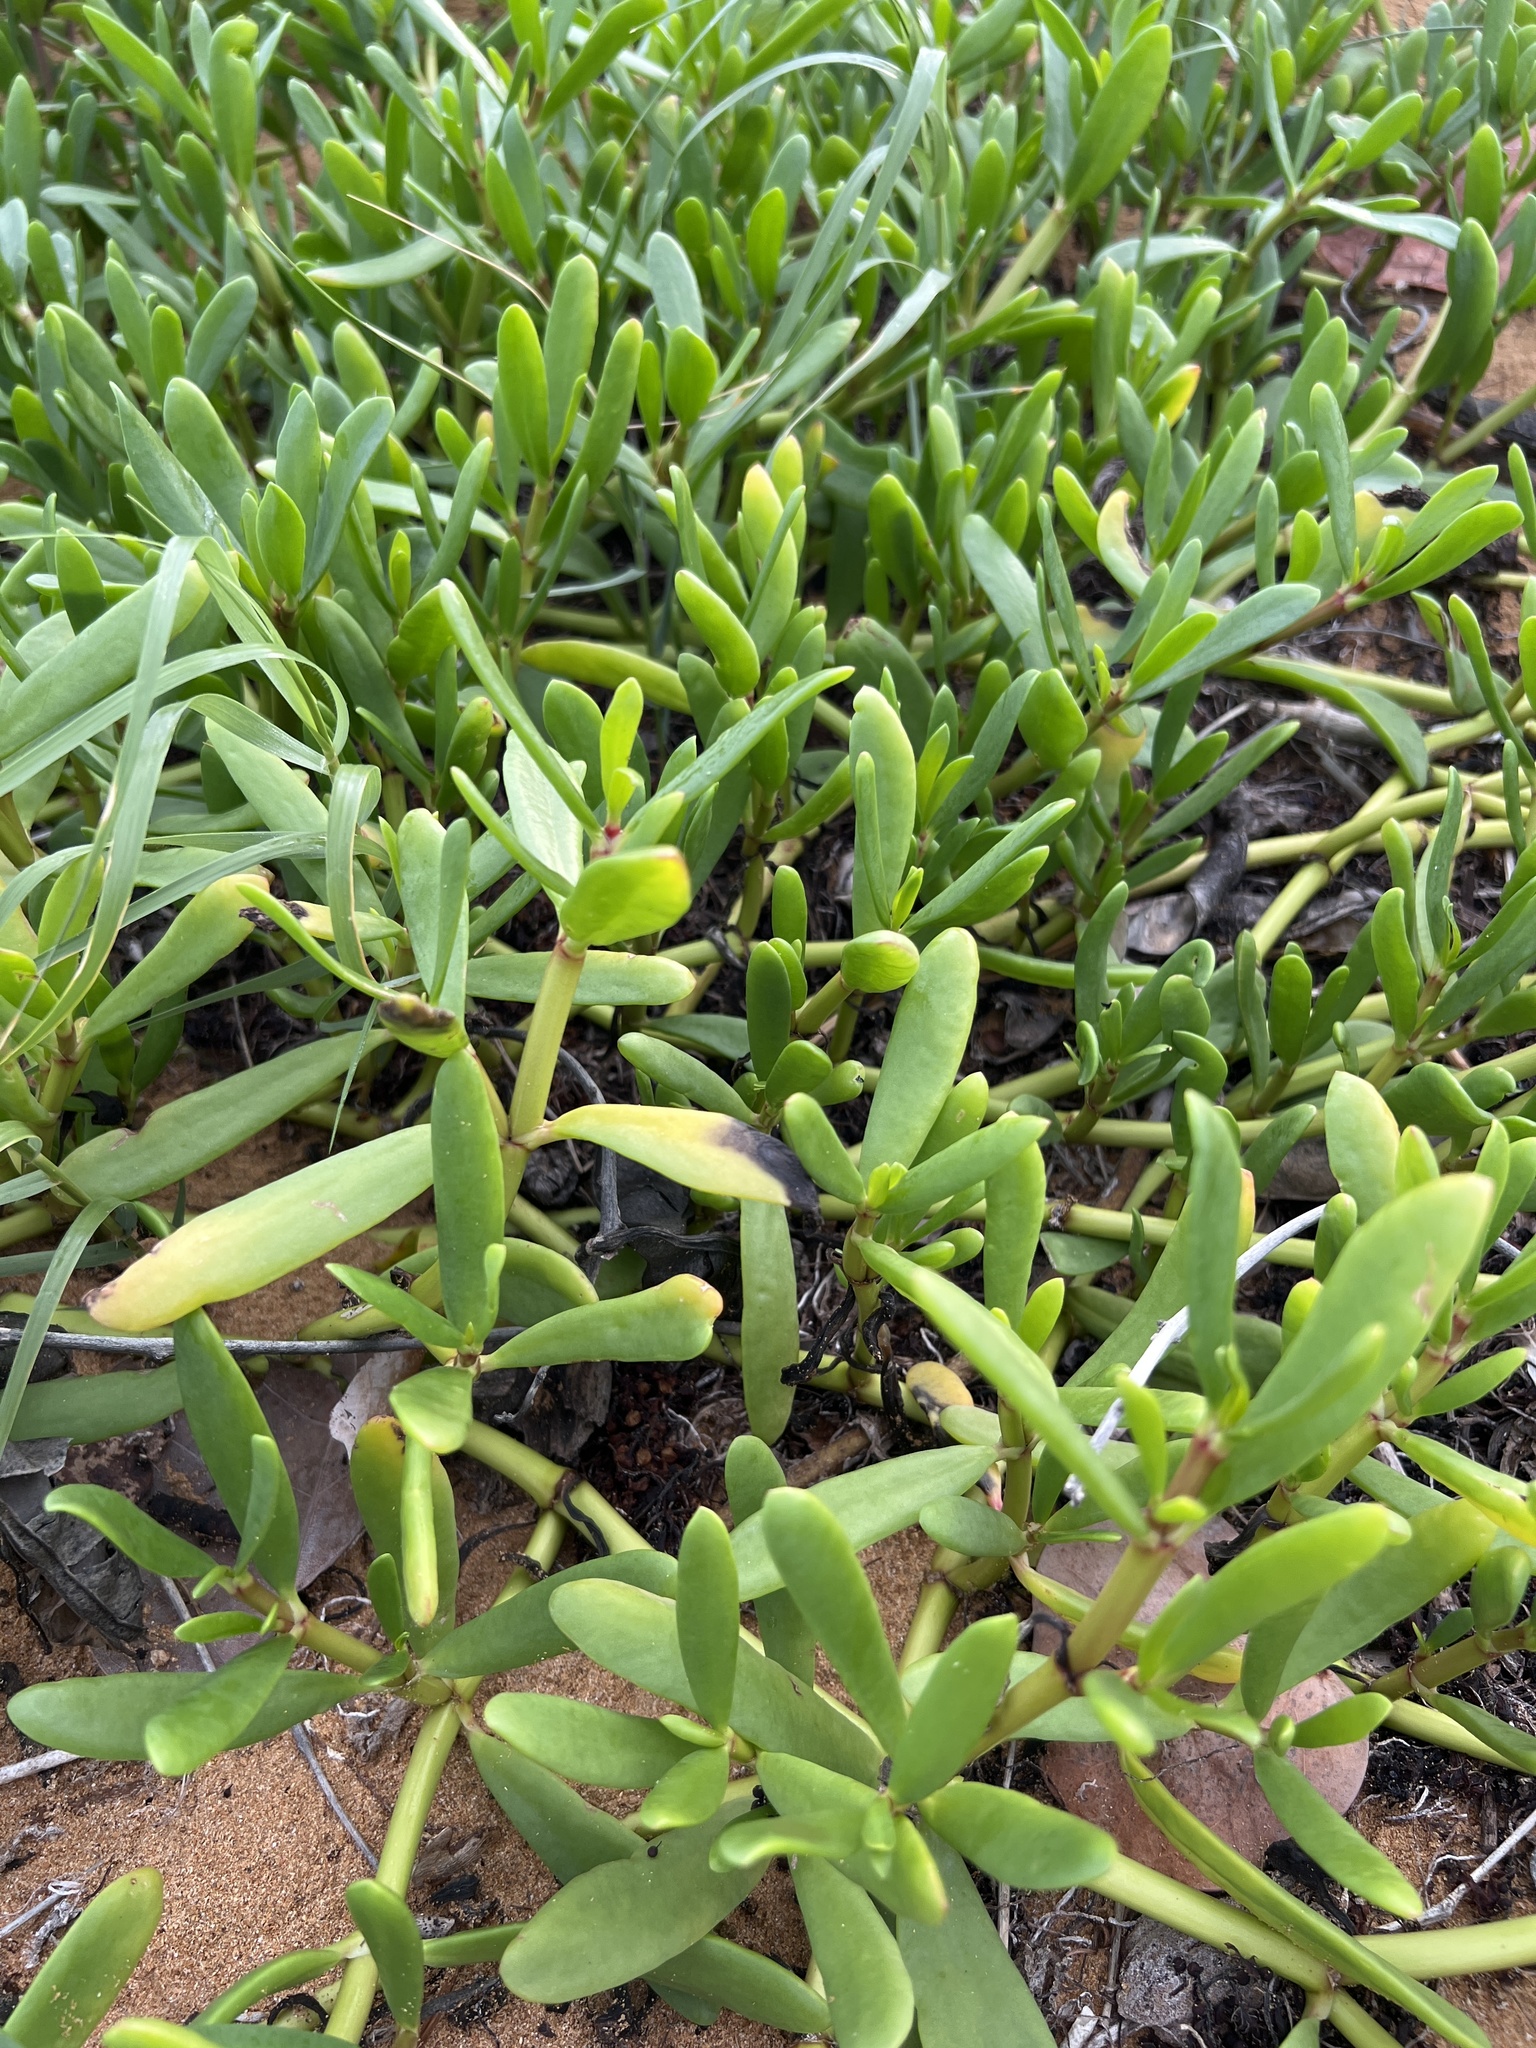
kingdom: Plantae
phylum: Tracheophyta
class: Magnoliopsida
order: Caryophyllales
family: Aizoaceae
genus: Sesuvium
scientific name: Sesuvium portulacastrum
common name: Sea-purslane
